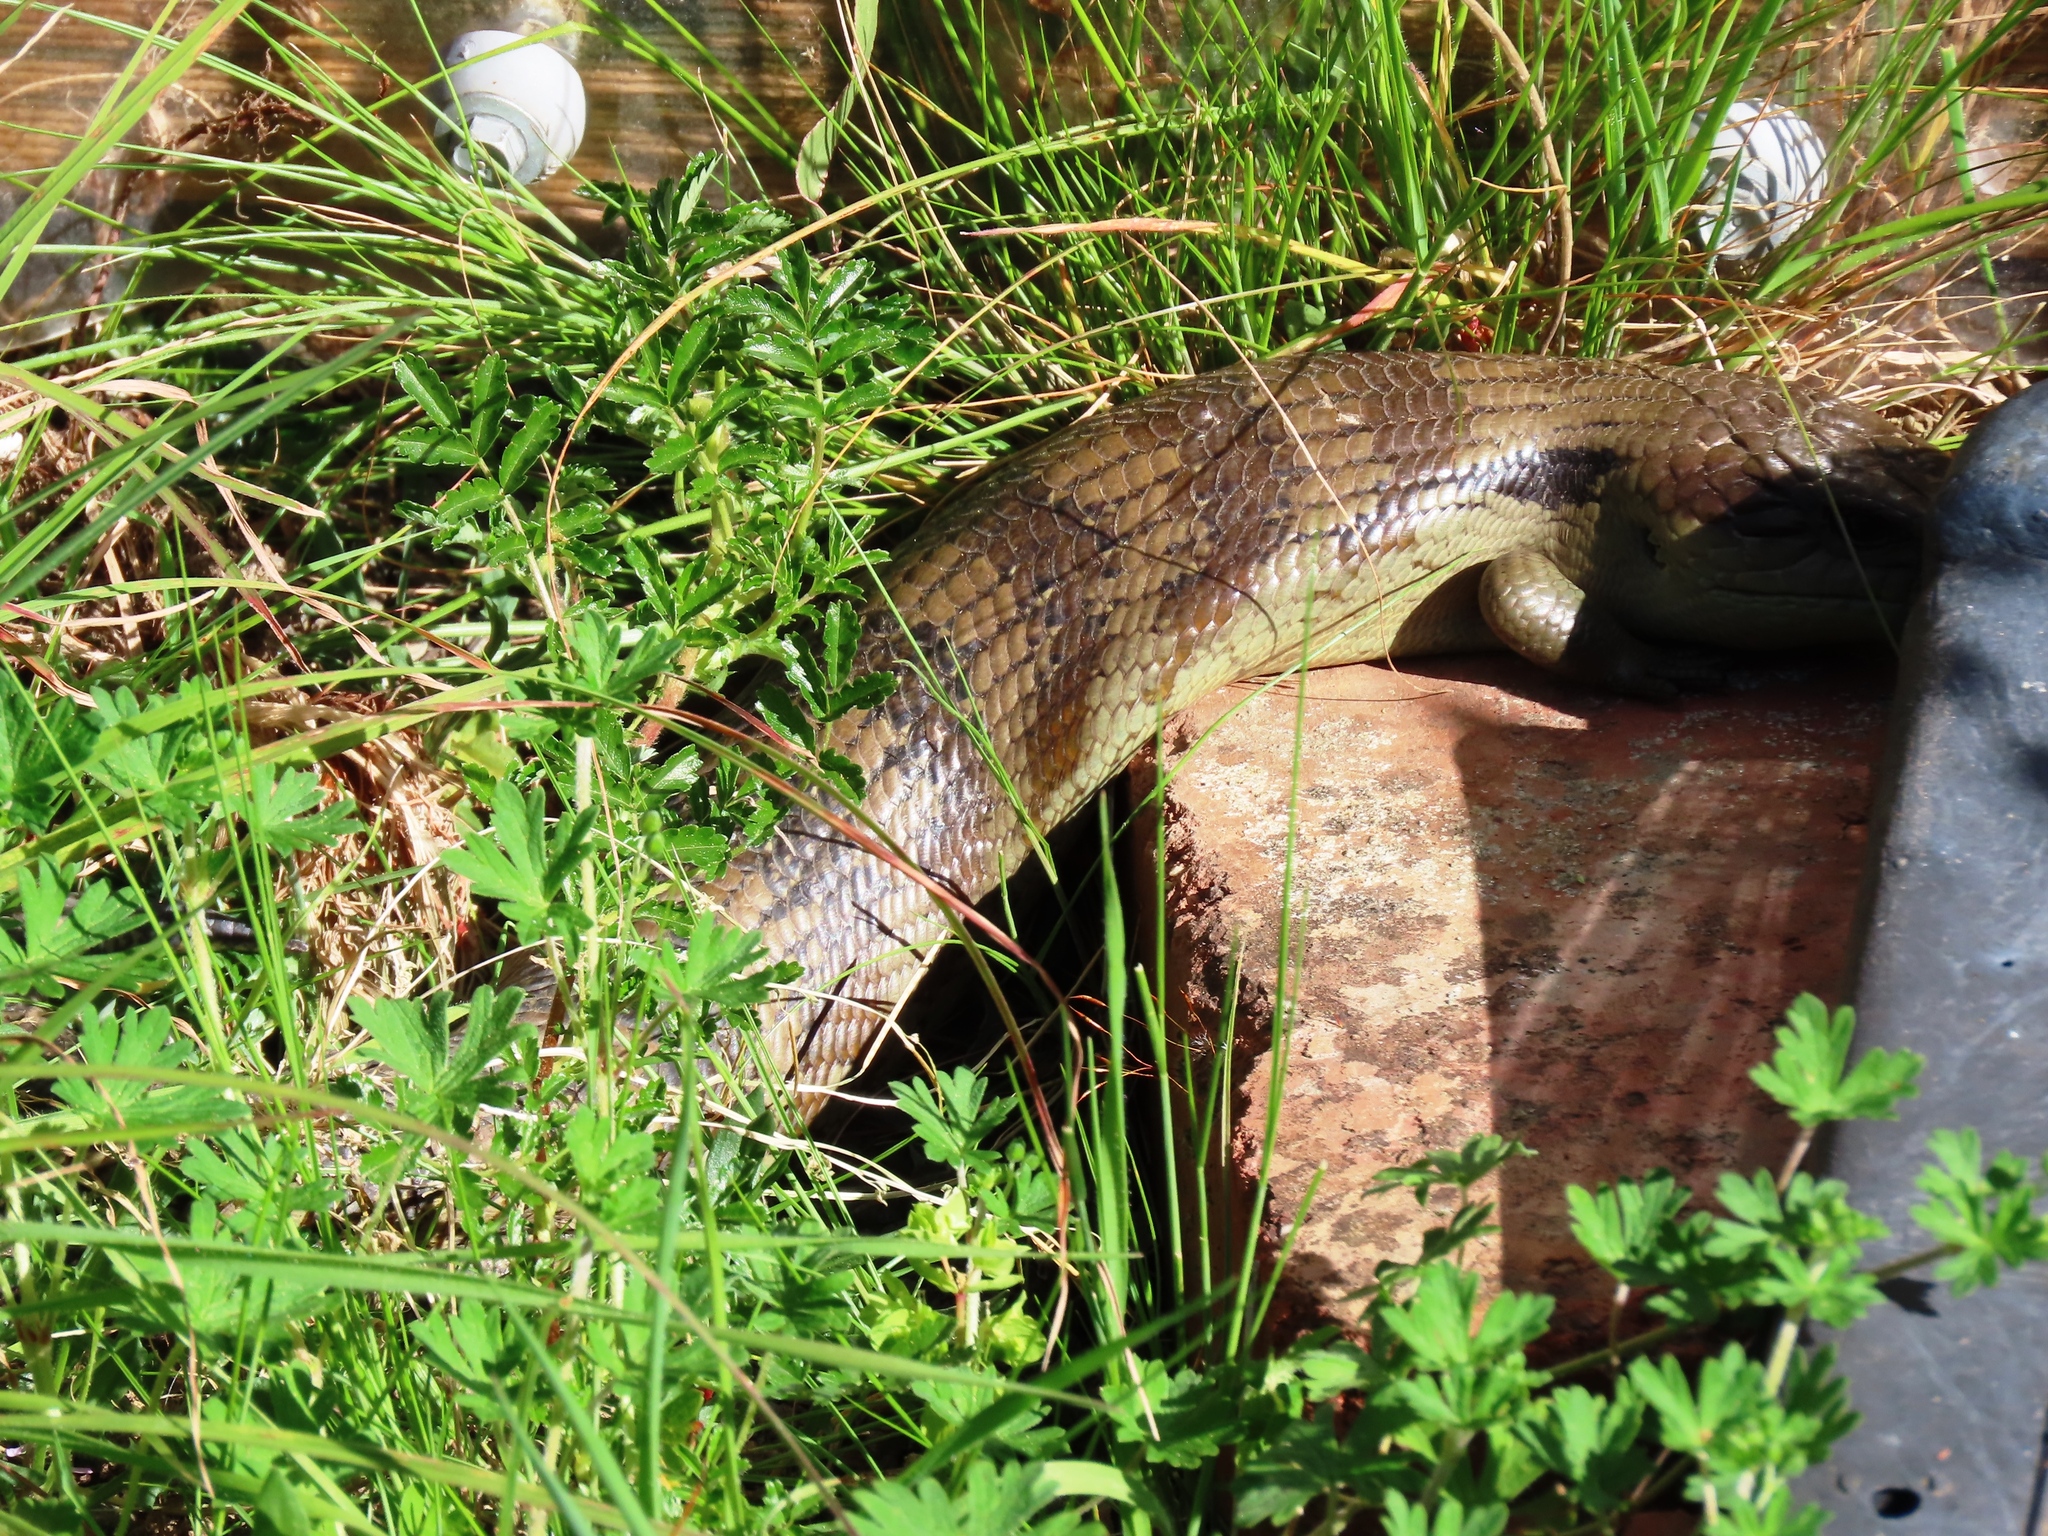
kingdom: Animalia
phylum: Chordata
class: Squamata
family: Scincidae
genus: Tiliqua
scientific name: Tiliqua scincoides
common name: Common bluetongue
